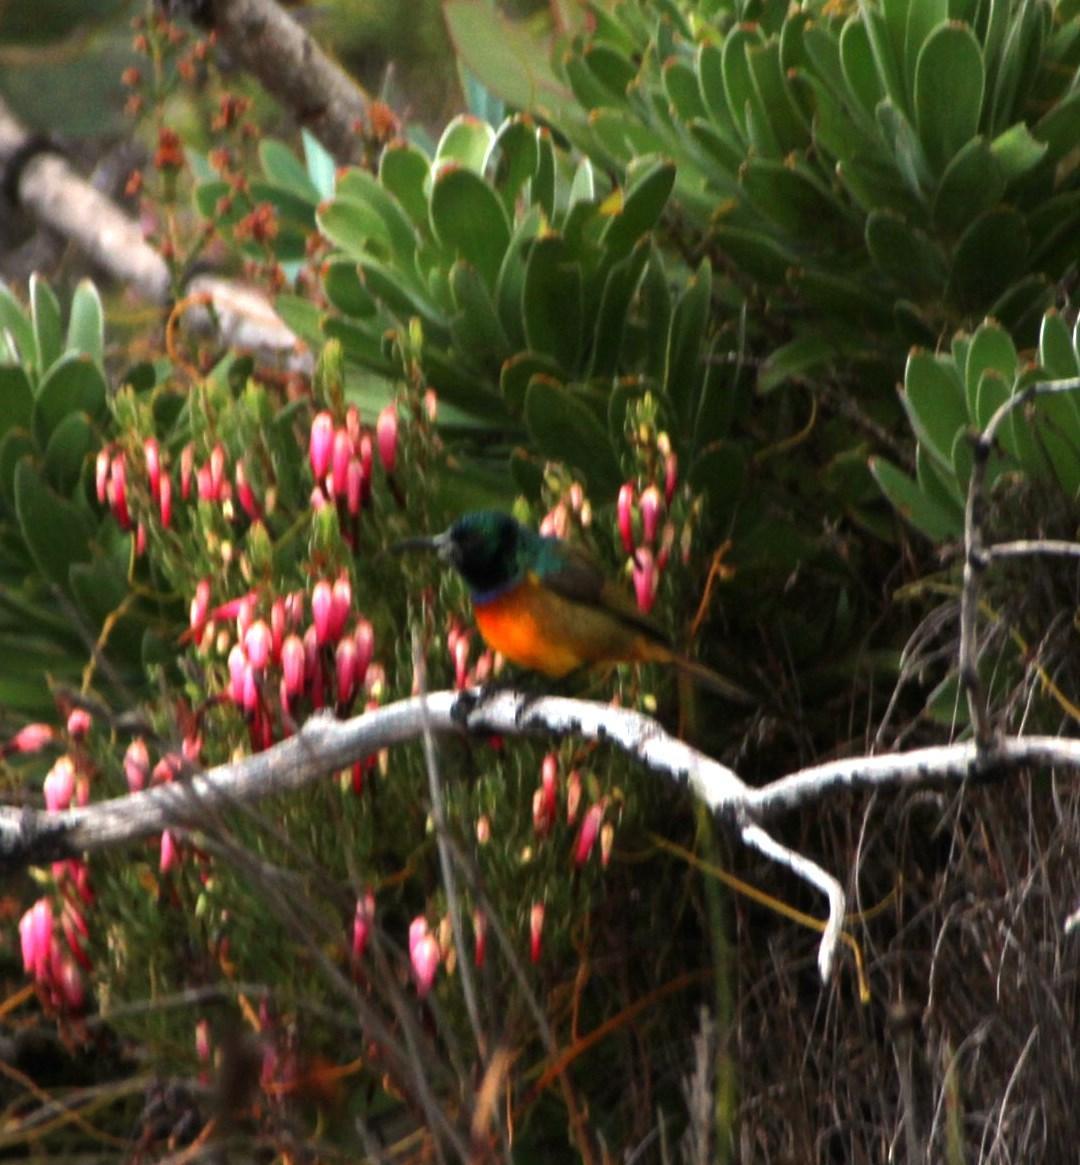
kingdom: Animalia
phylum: Chordata
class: Aves
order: Passeriformes
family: Nectariniidae
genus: Anthobaphes
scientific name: Anthobaphes violacea
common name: Orange-breasted sunbird
